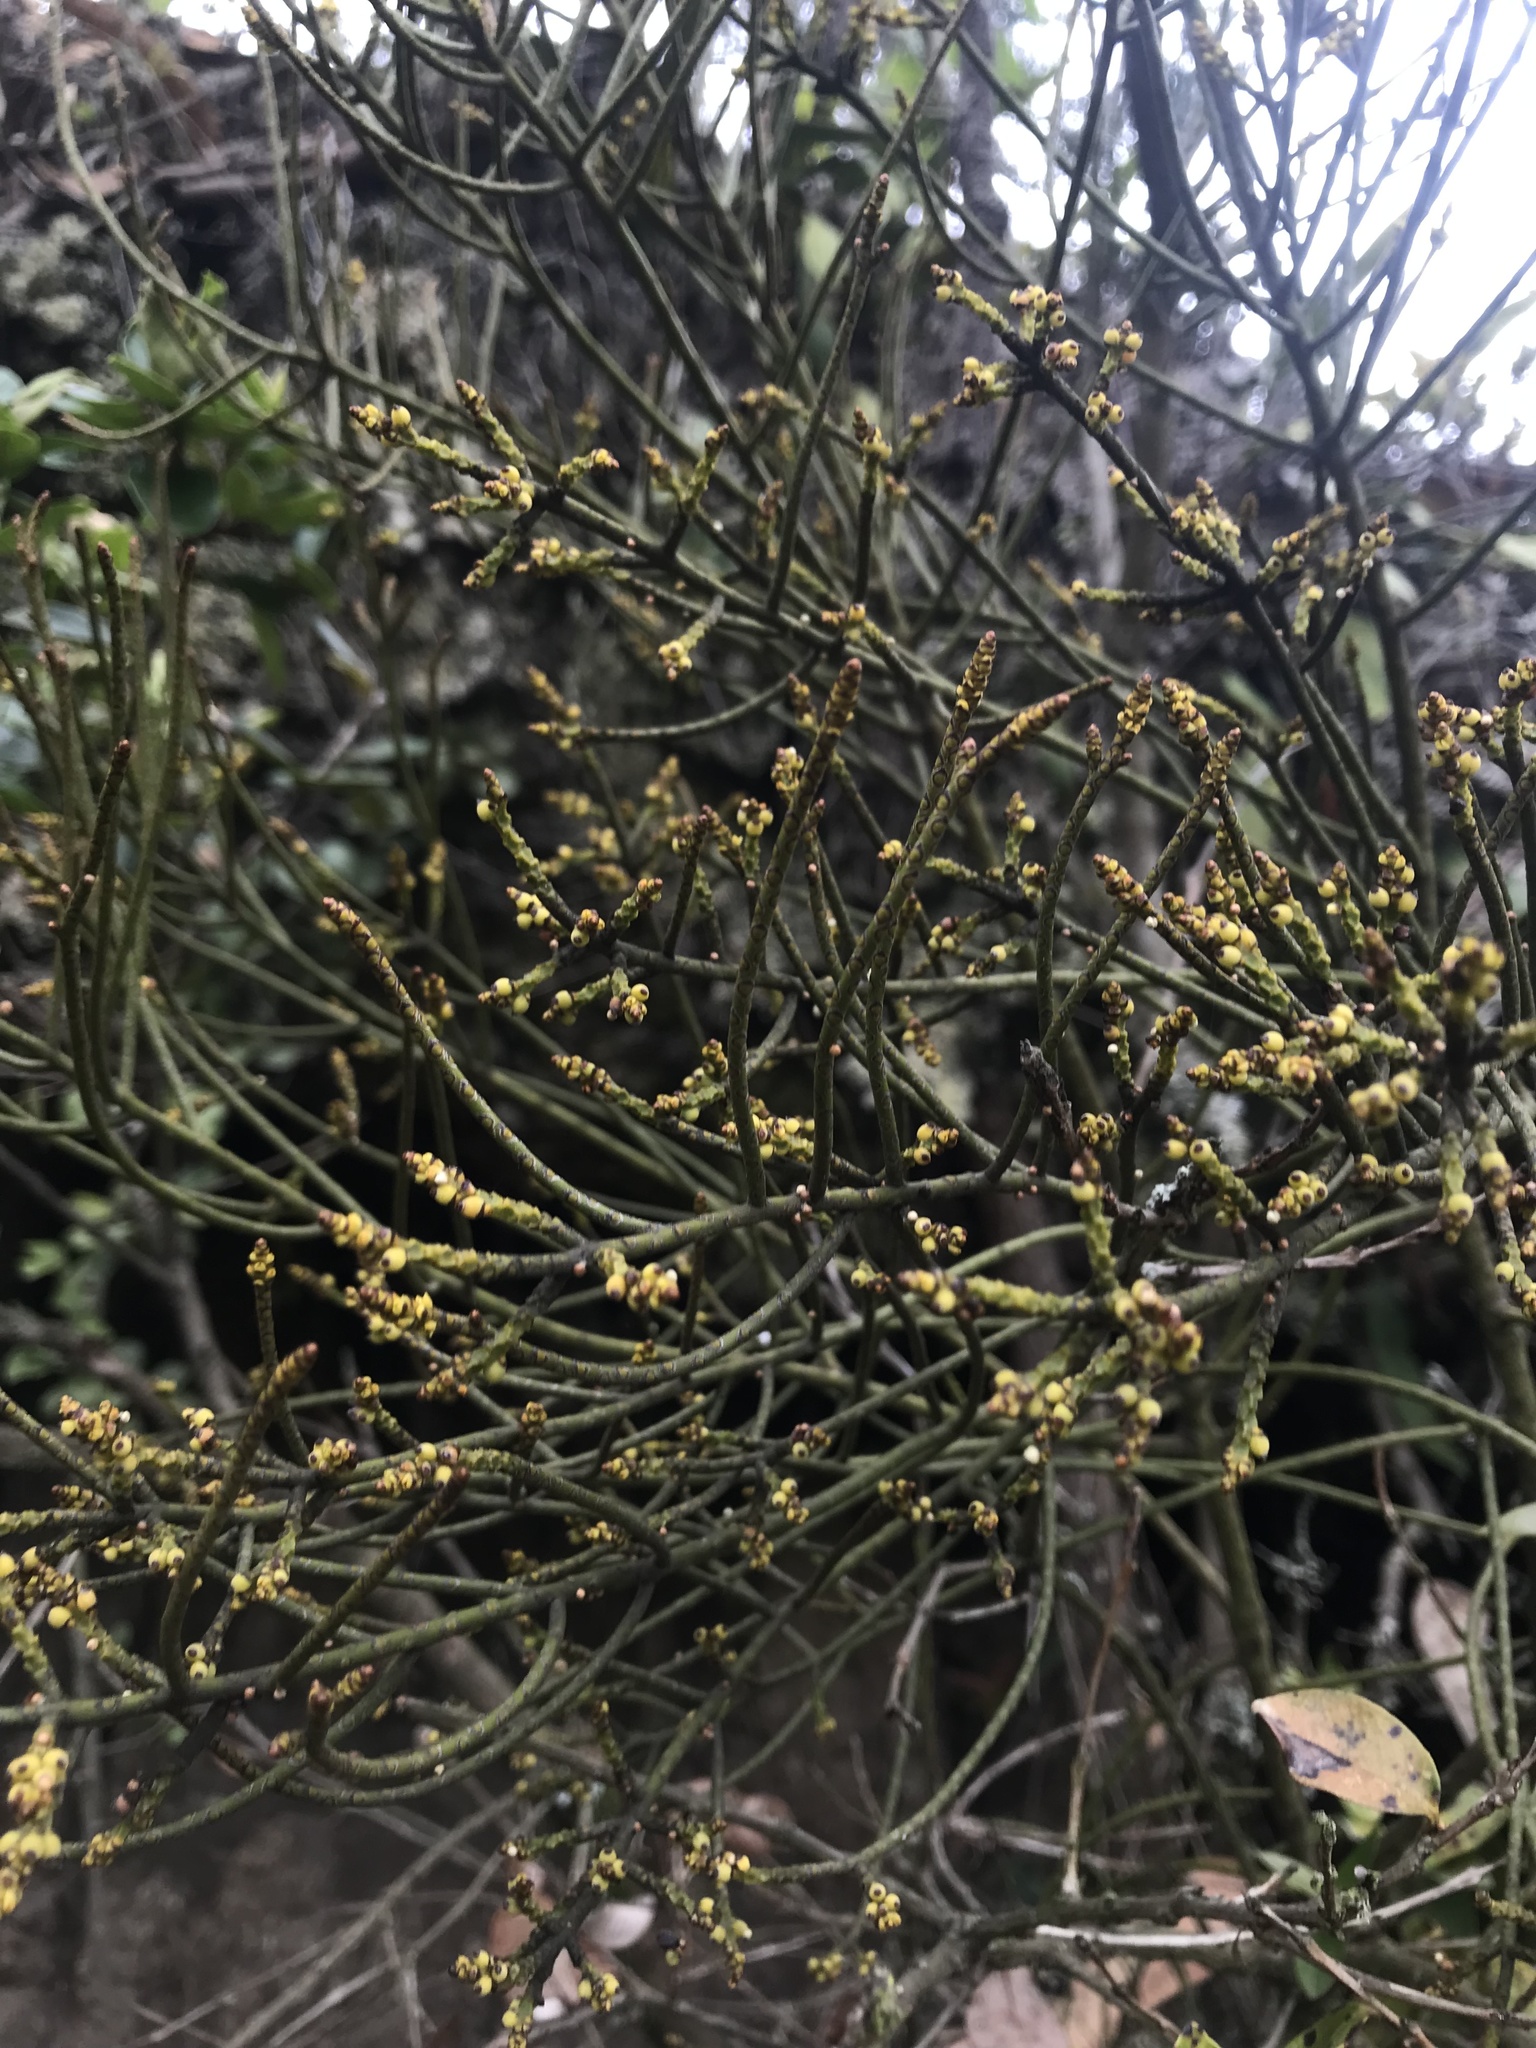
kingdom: Plantae
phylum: Tracheophyta
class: Magnoliopsida
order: Santalales
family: Santalaceae
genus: Eubrachion
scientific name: Eubrachion ambiguum
